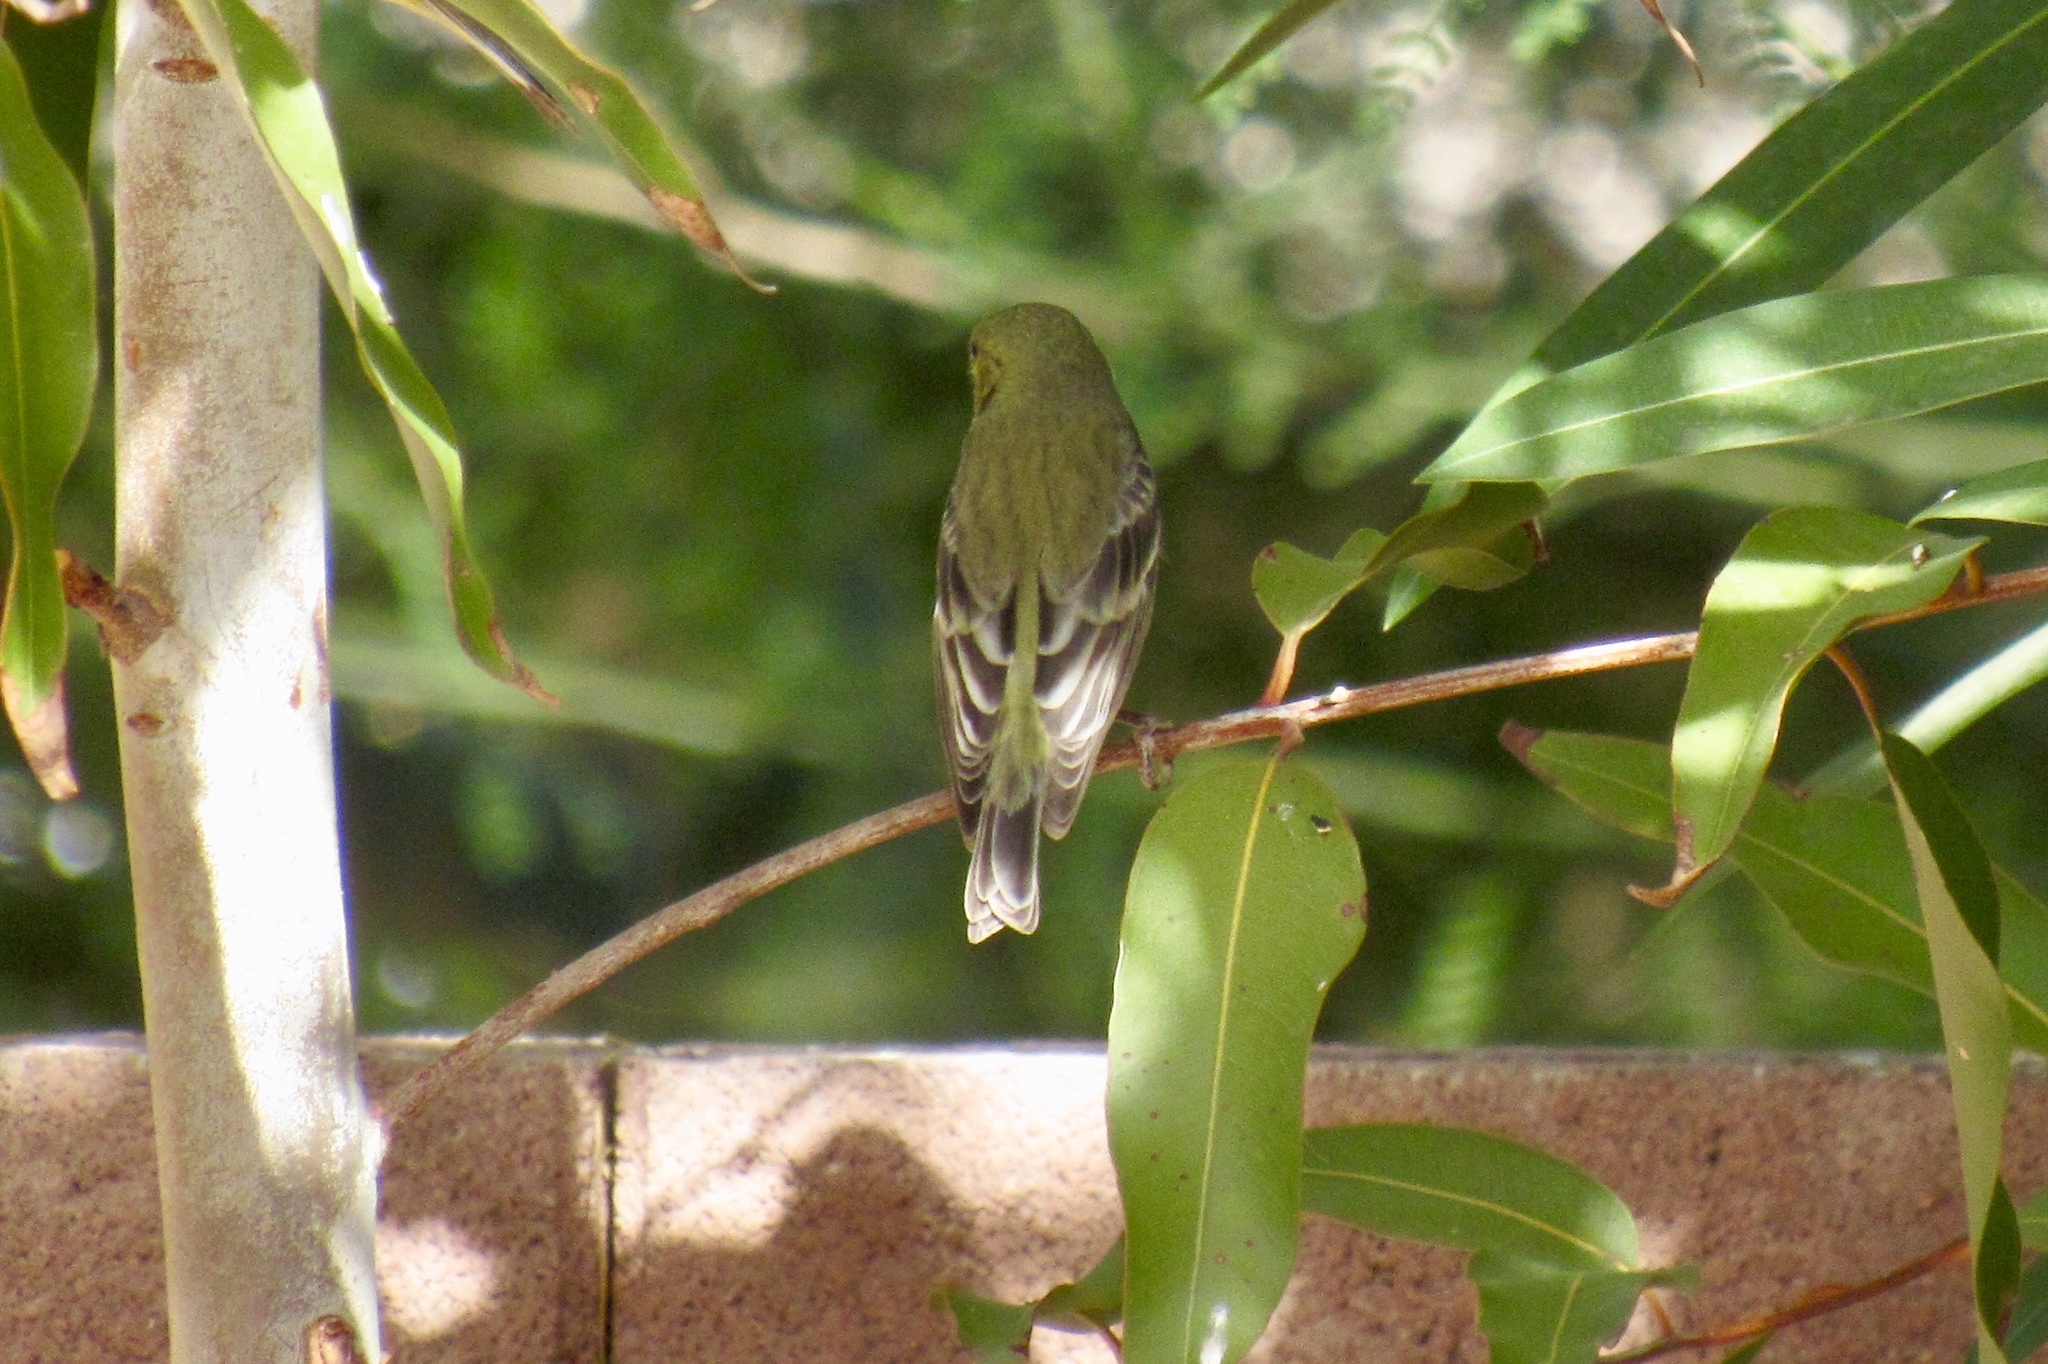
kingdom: Animalia
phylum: Chordata
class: Aves
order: Passeriformes
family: Fringillidae
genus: Spinus
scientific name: Spinus psaltria
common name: Lesser goldfinch
